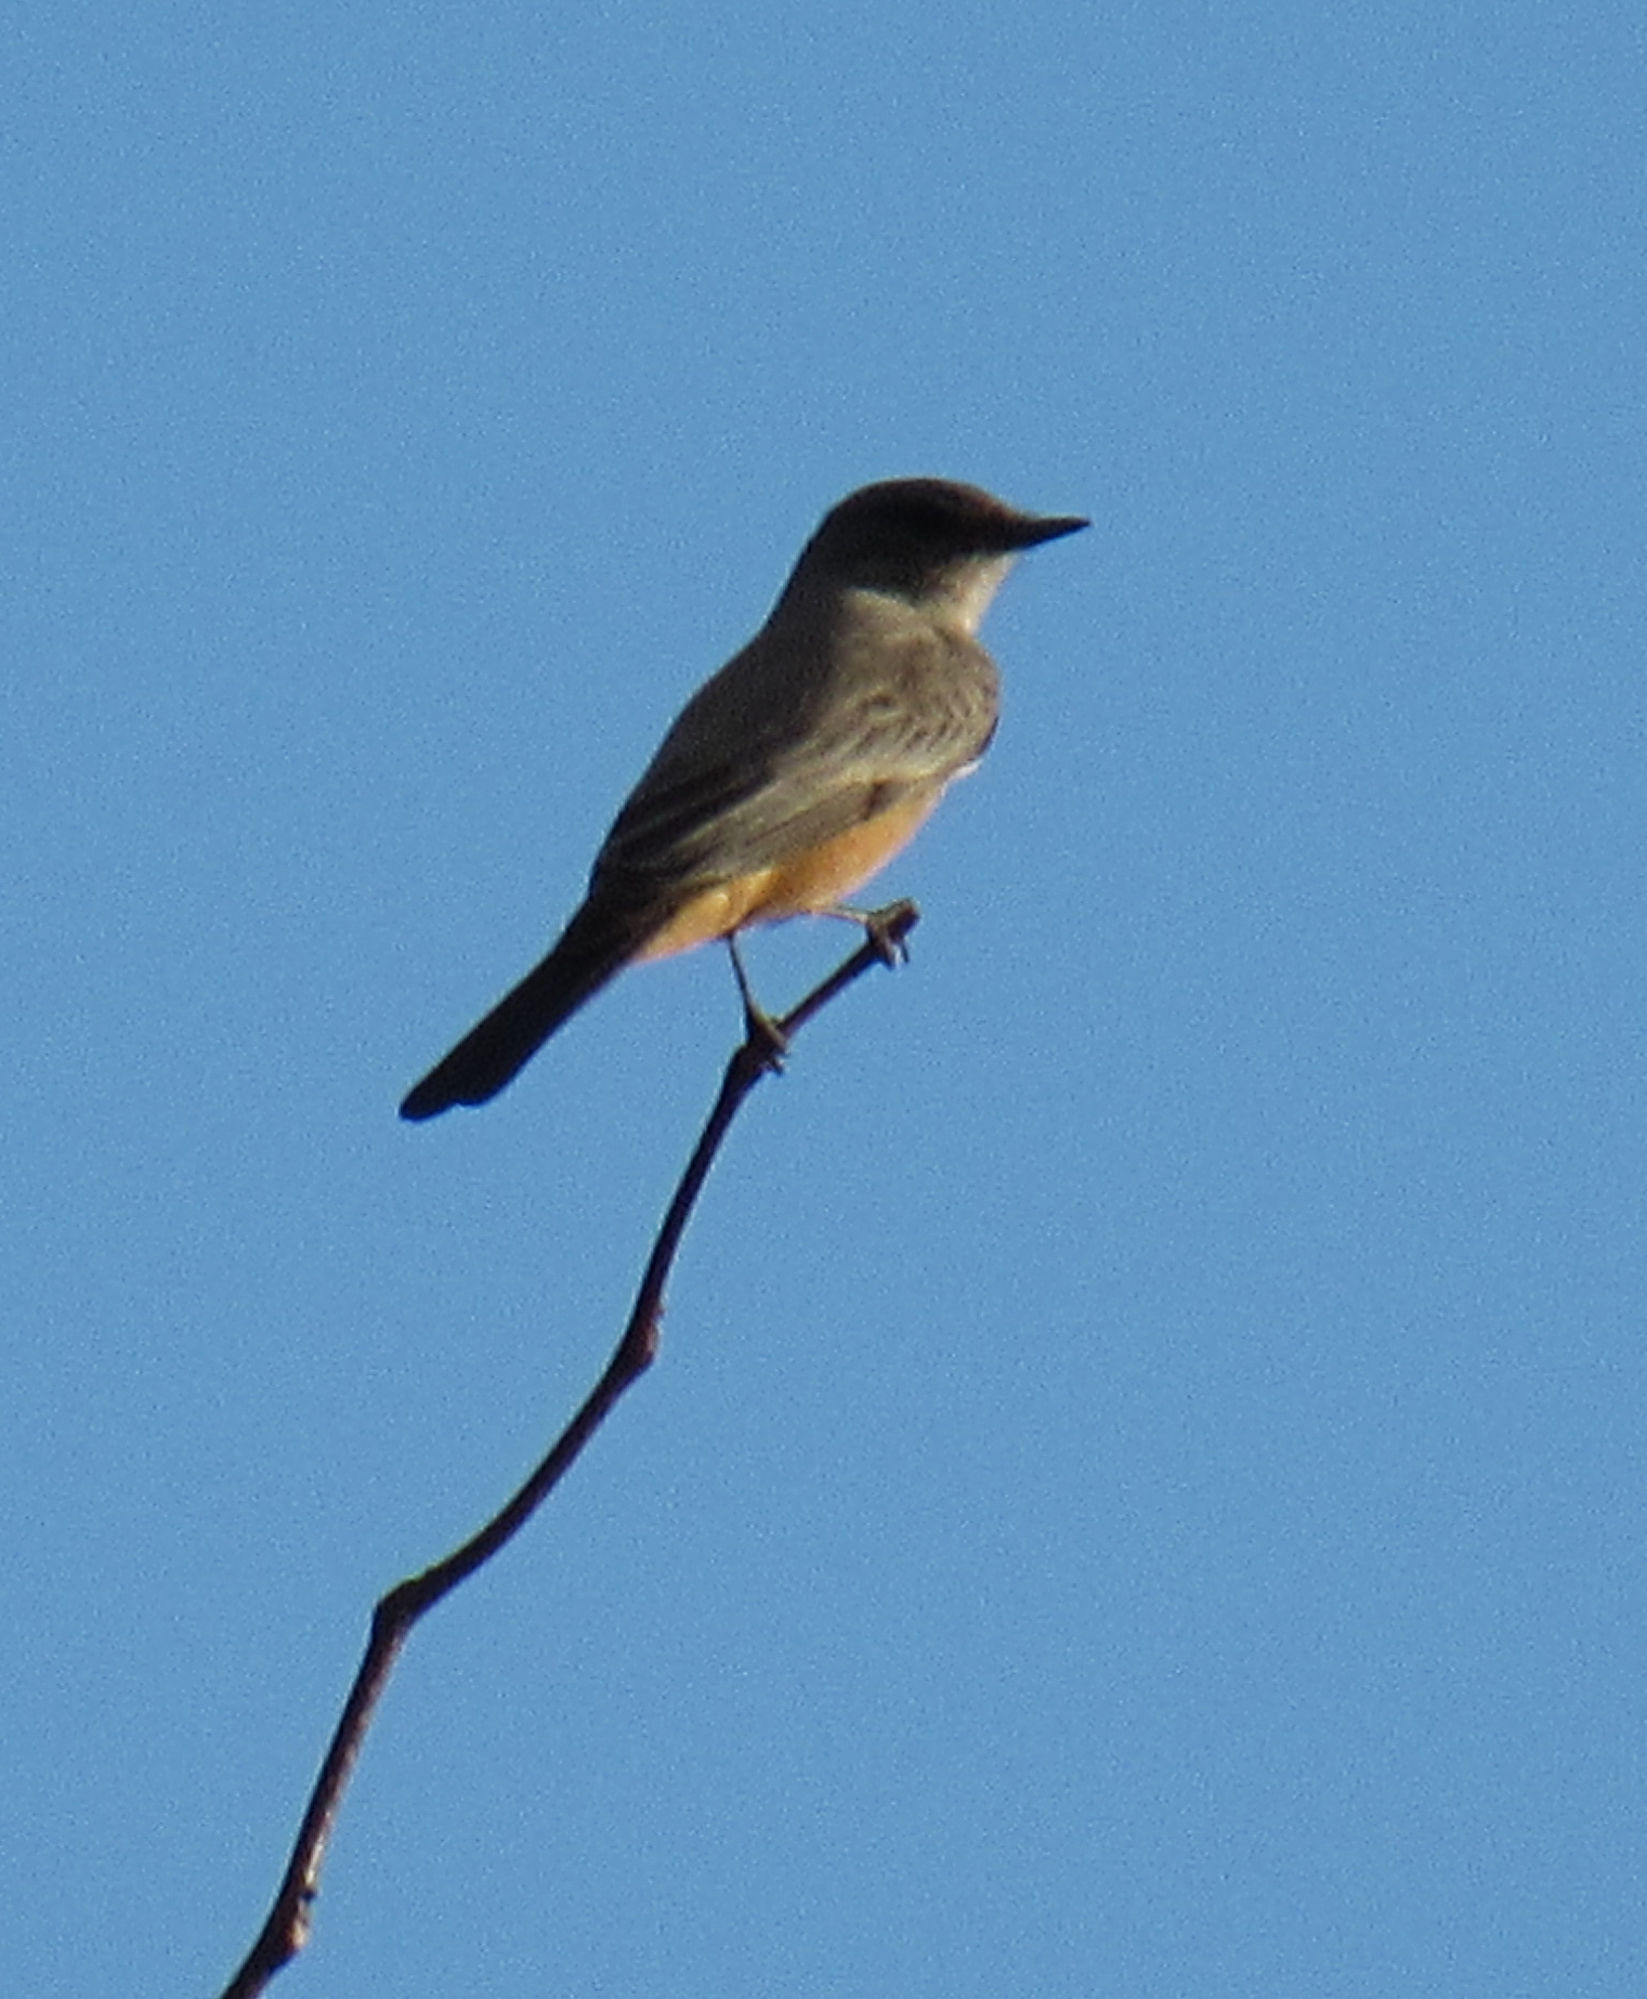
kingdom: Animalia
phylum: Chordata
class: Aves
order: Passeriformes
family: Tyrannidae
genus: Sayornis
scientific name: Sayornis saya
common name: Say's phoebe
